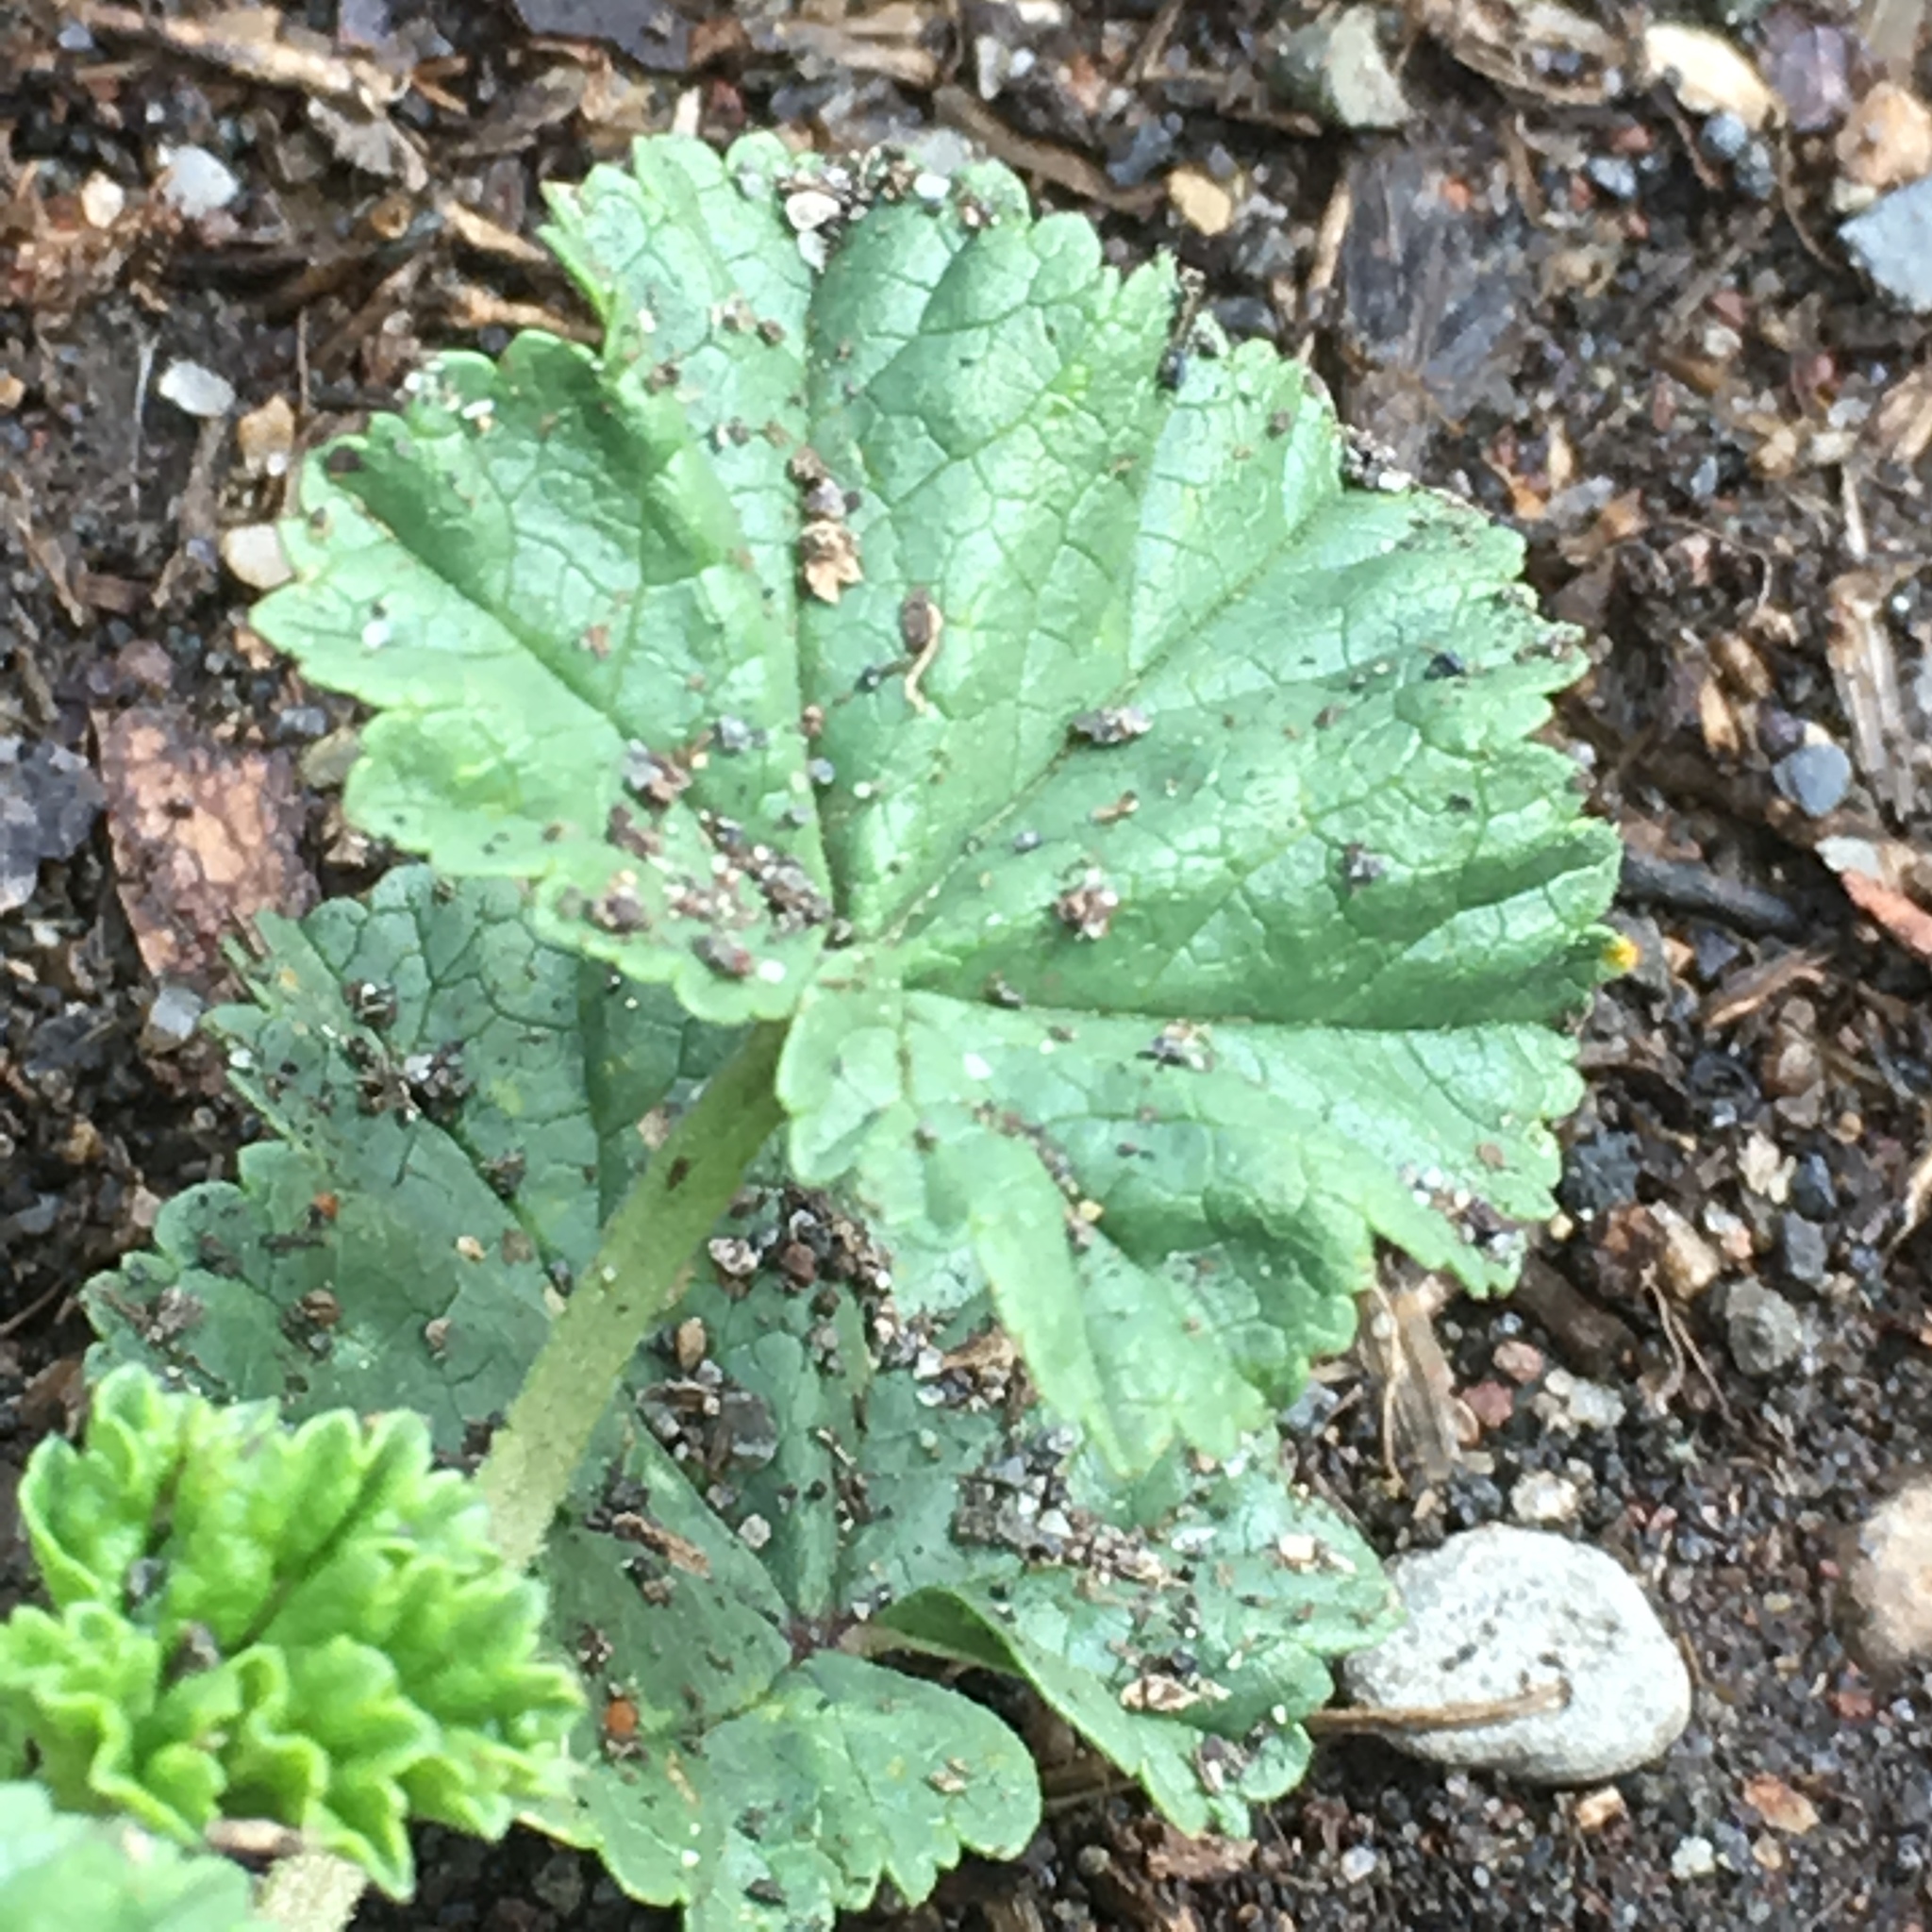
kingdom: Plantae
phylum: Tracheophyta
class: Magnoliopsida
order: Malvales
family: Malvaceae
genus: Malva
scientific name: Malva neglecta
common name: Common mallow
